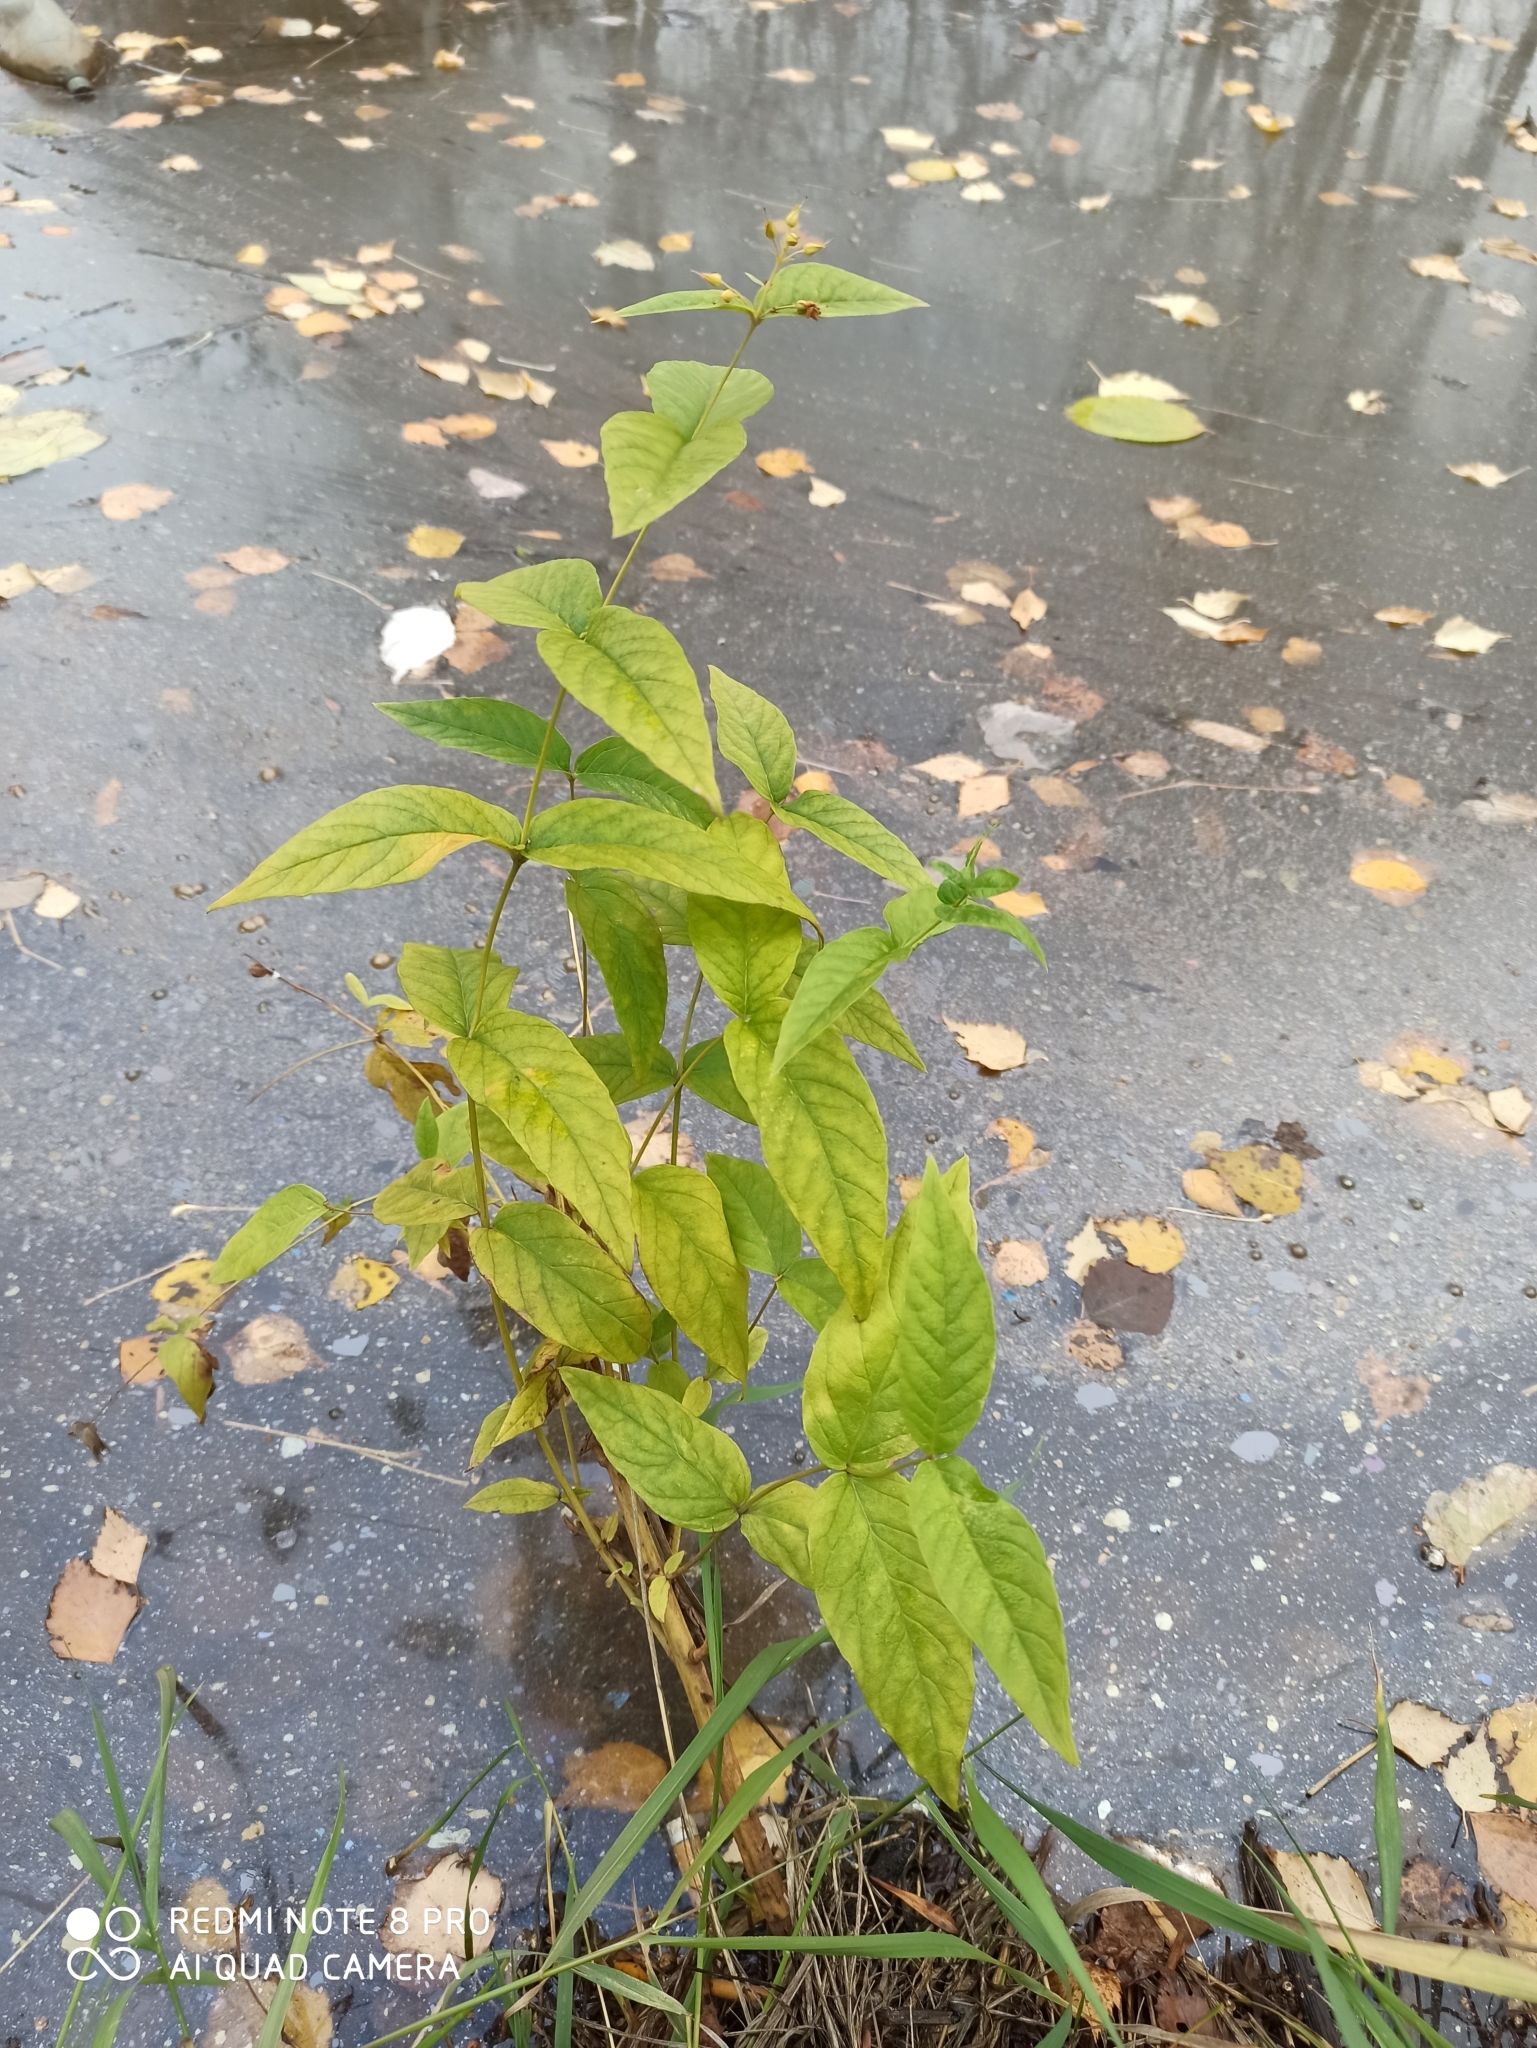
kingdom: Plantae
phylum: Tracheophyta
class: Magnoliopsida
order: Ericales
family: Primulaceae
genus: Lysimachia
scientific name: Lysimachia vulgaris
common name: Yellow loosestrife
